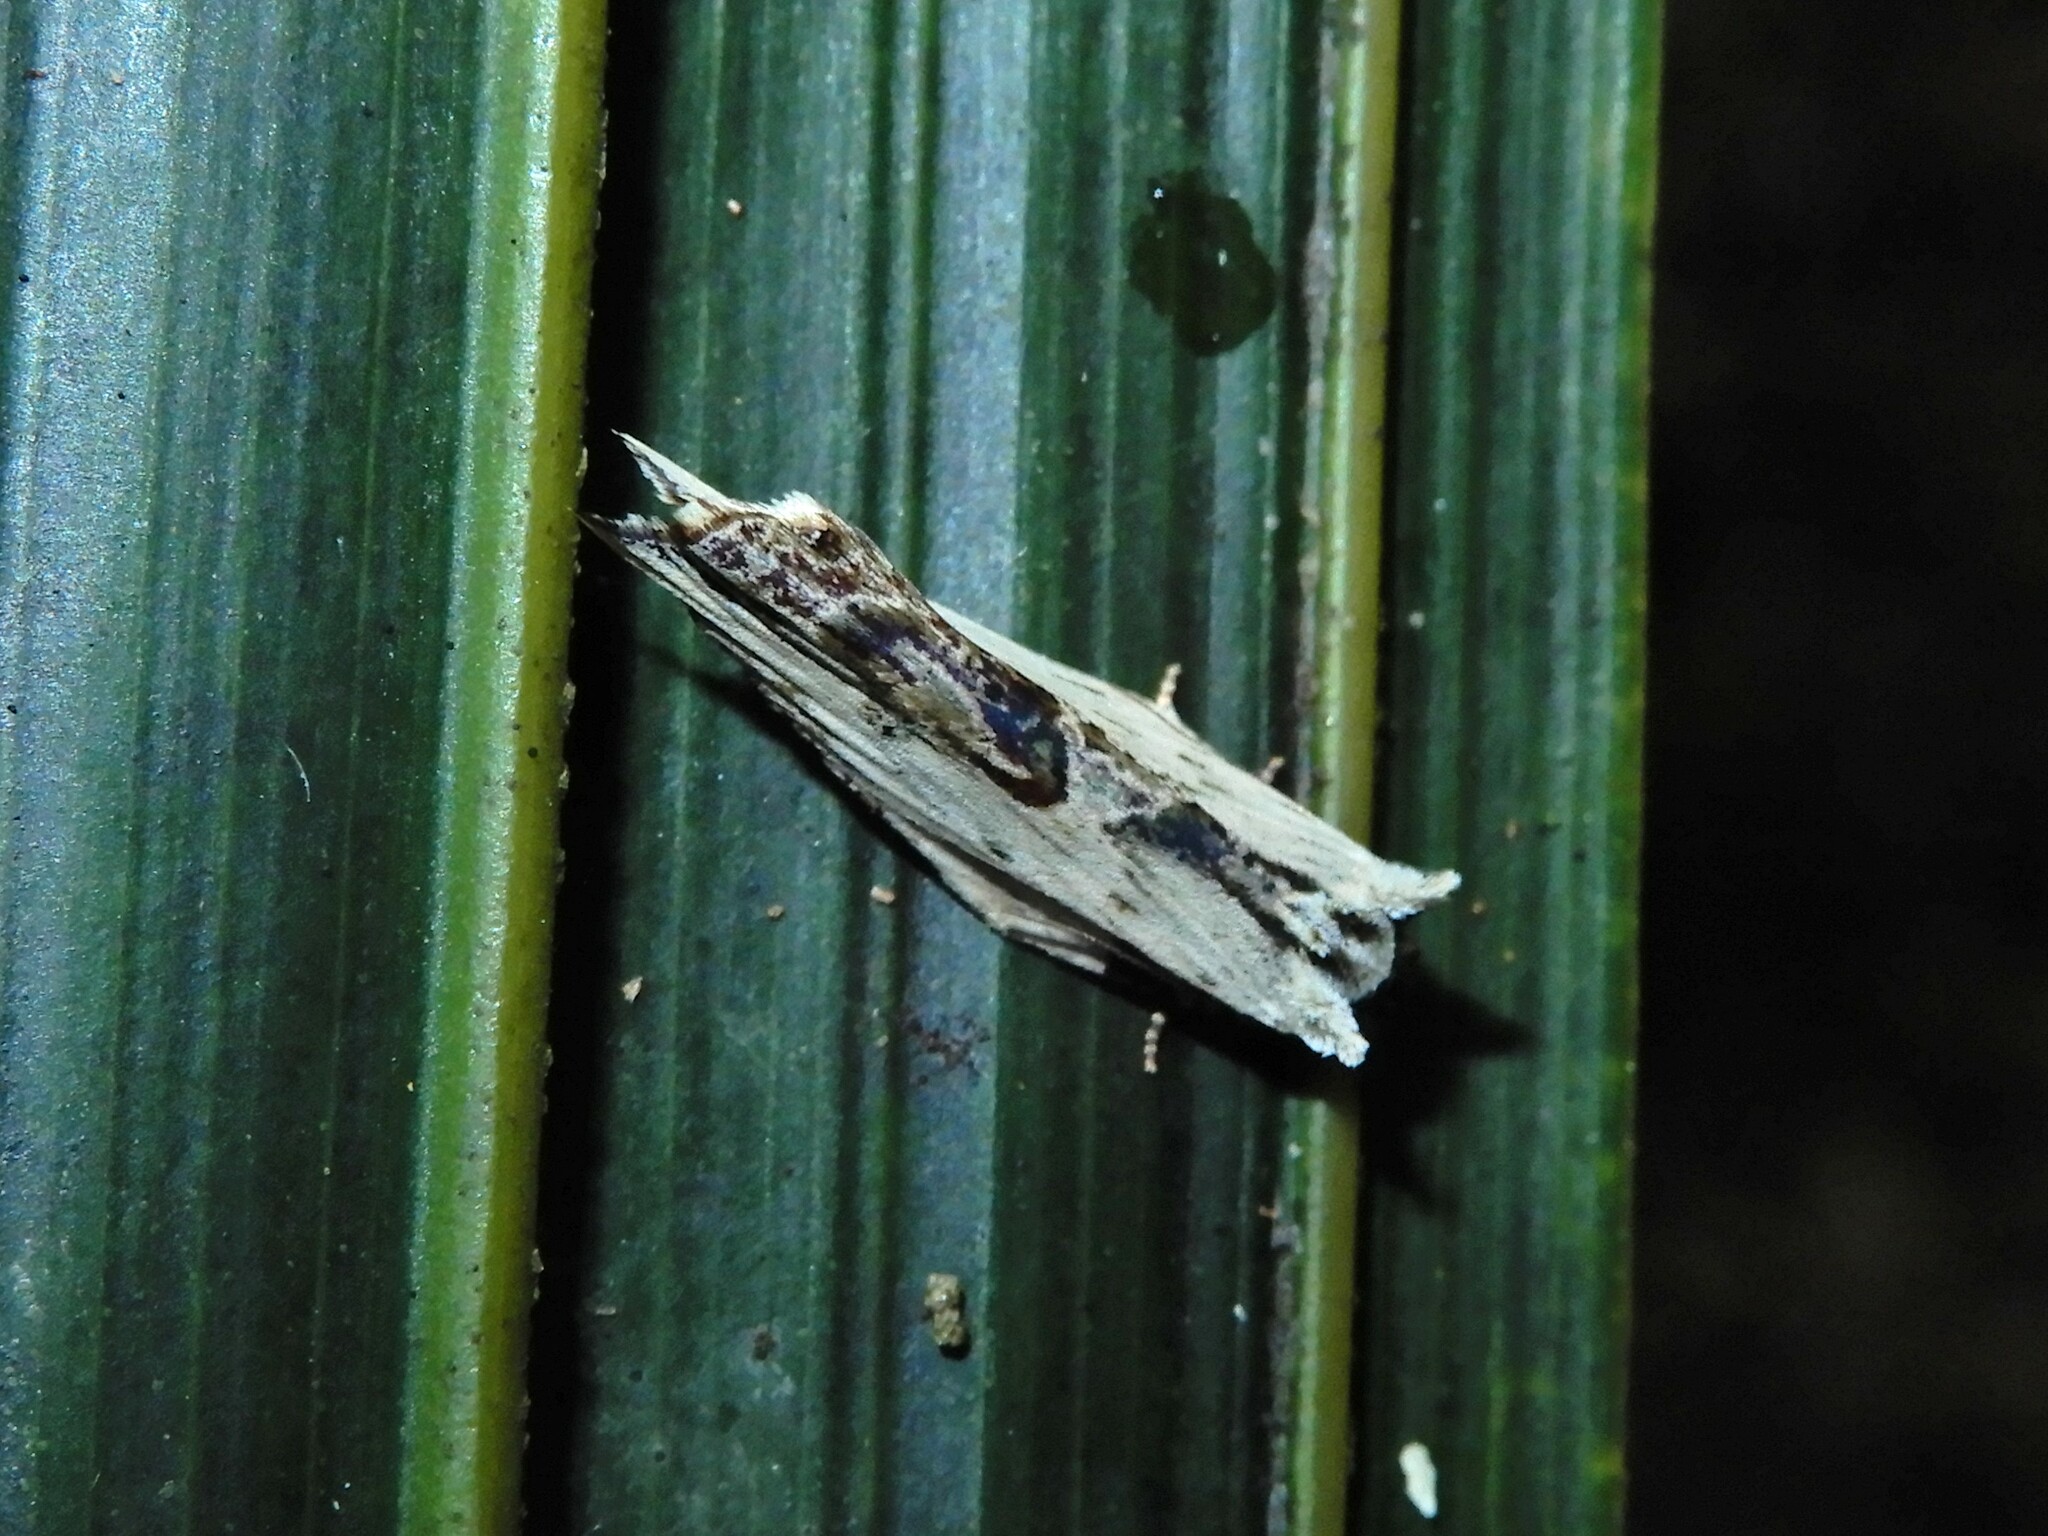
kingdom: Animalia
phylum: Arthropoda
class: Insecta
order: Lepidoptera
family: Tortricidae
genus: Epalxiphora
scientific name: Epalxiphora axenana
